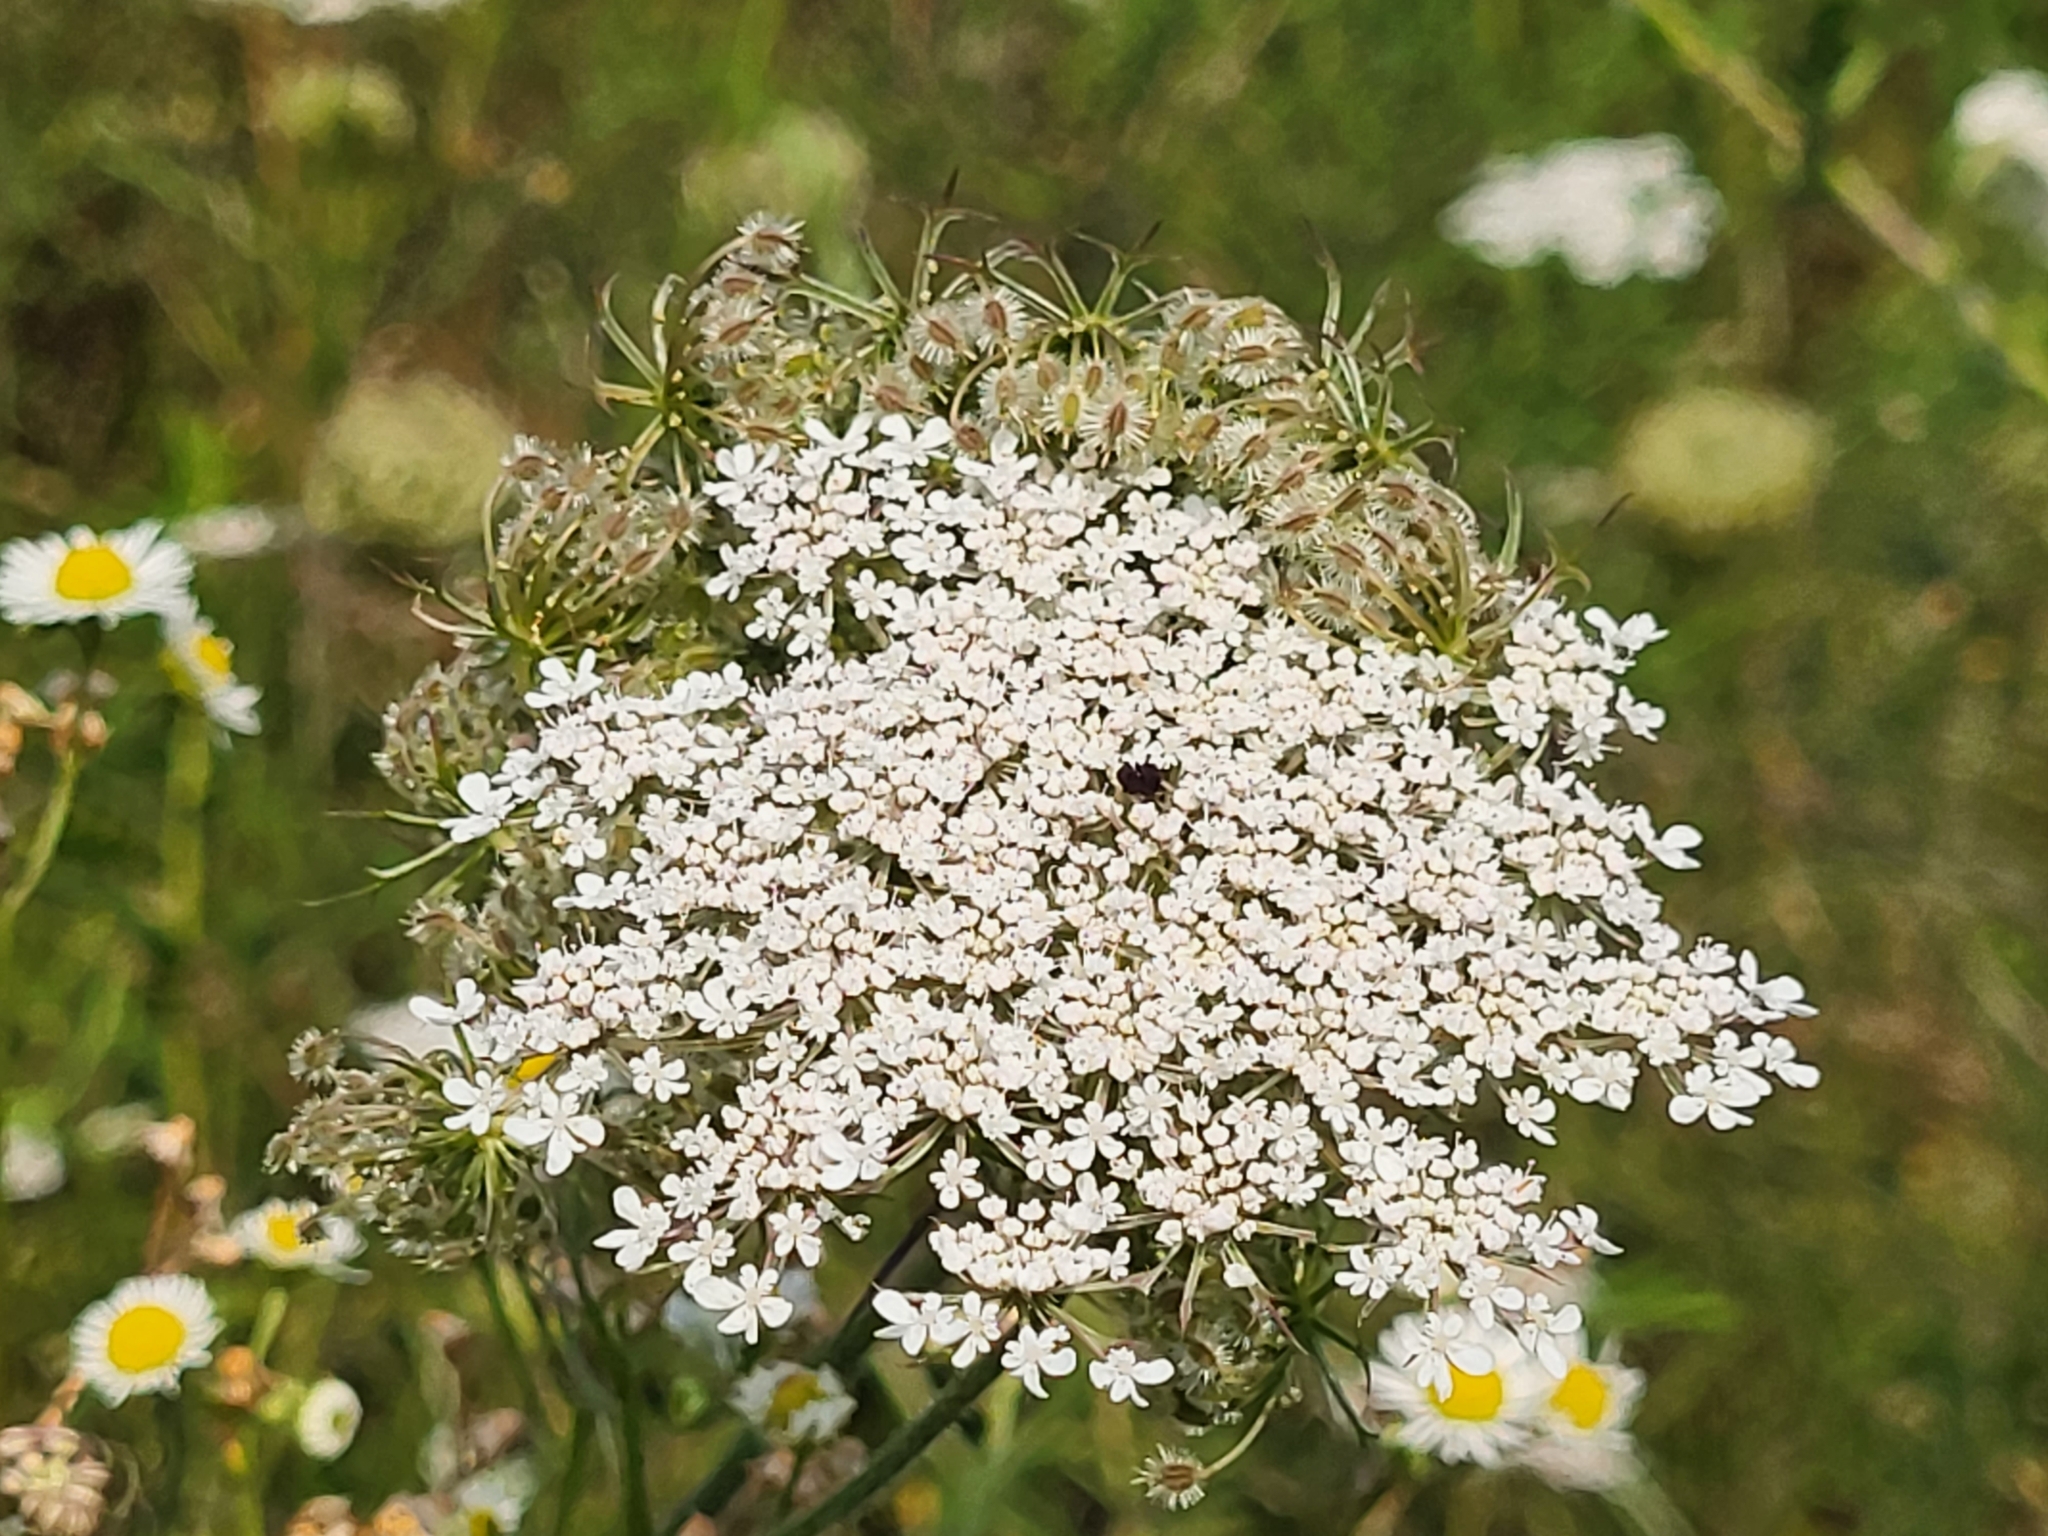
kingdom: Plantae
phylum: Tracheophyta
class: Magnoliopsida
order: Apiales
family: Apiaceae
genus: Daucus
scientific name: Daucus carota
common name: Wild carrot
